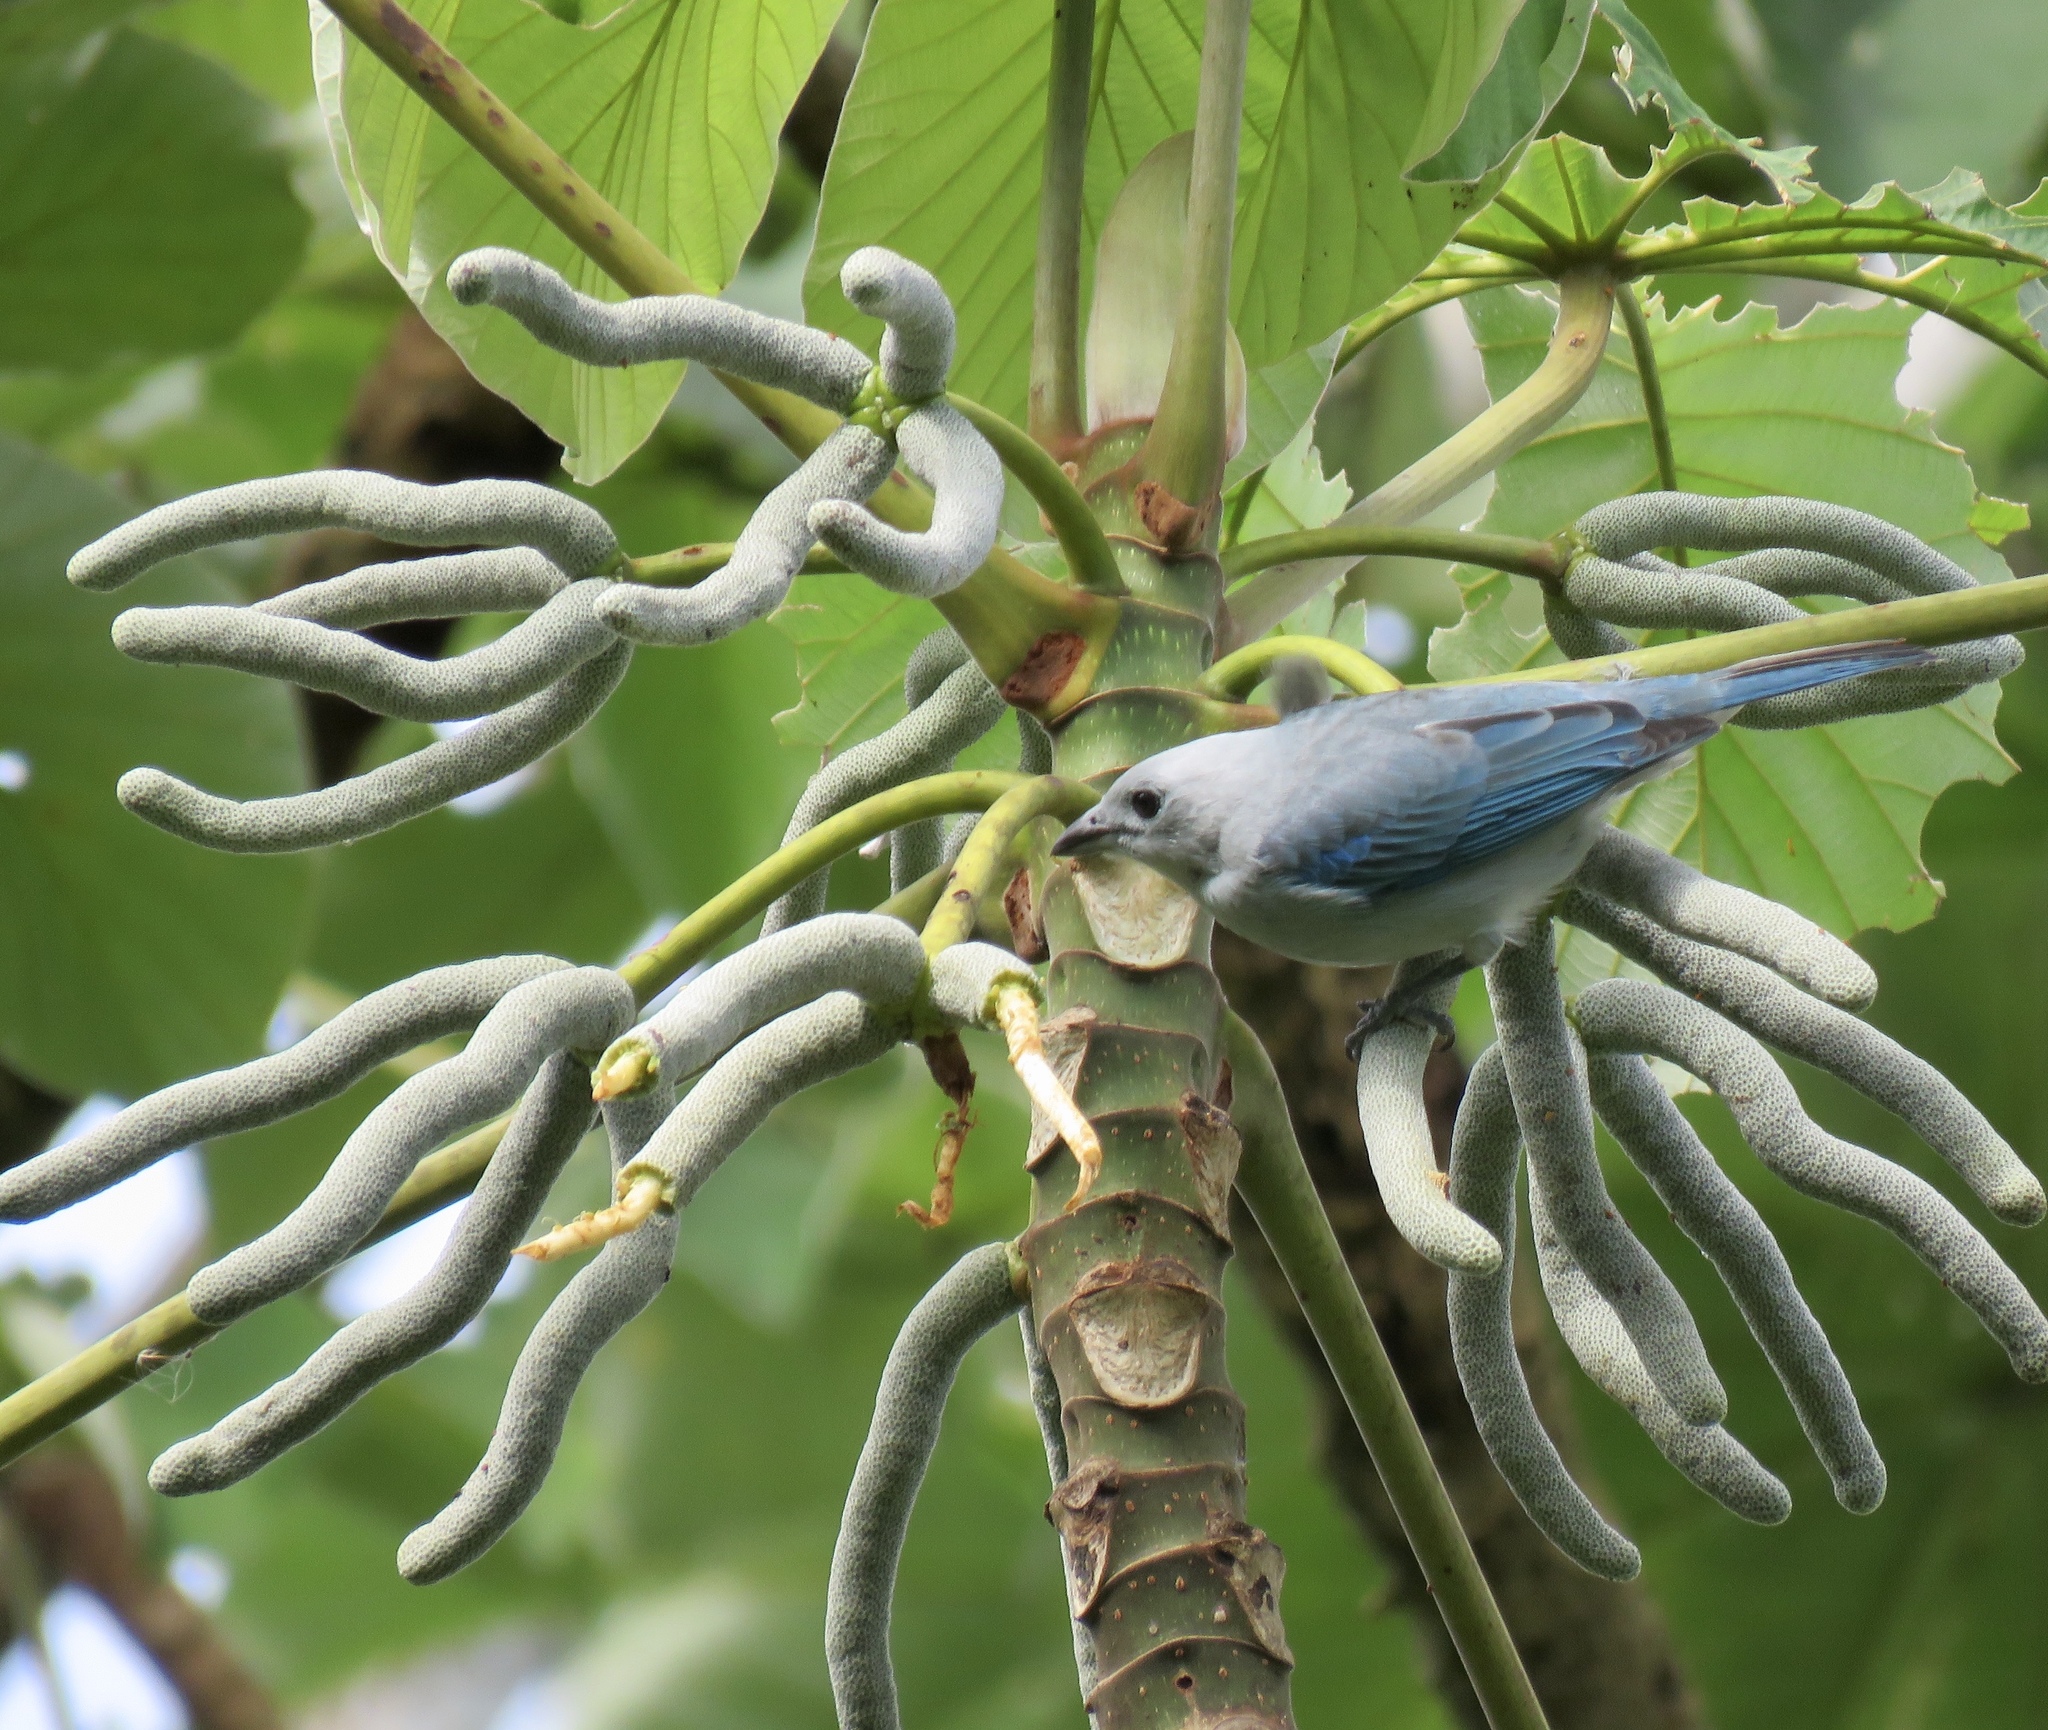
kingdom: Animalia
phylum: Chordata
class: Aves
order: Passeriformes
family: Thraupidae
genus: Thraupis
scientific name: Thraupis episcopus
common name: Blue-grey tanager
